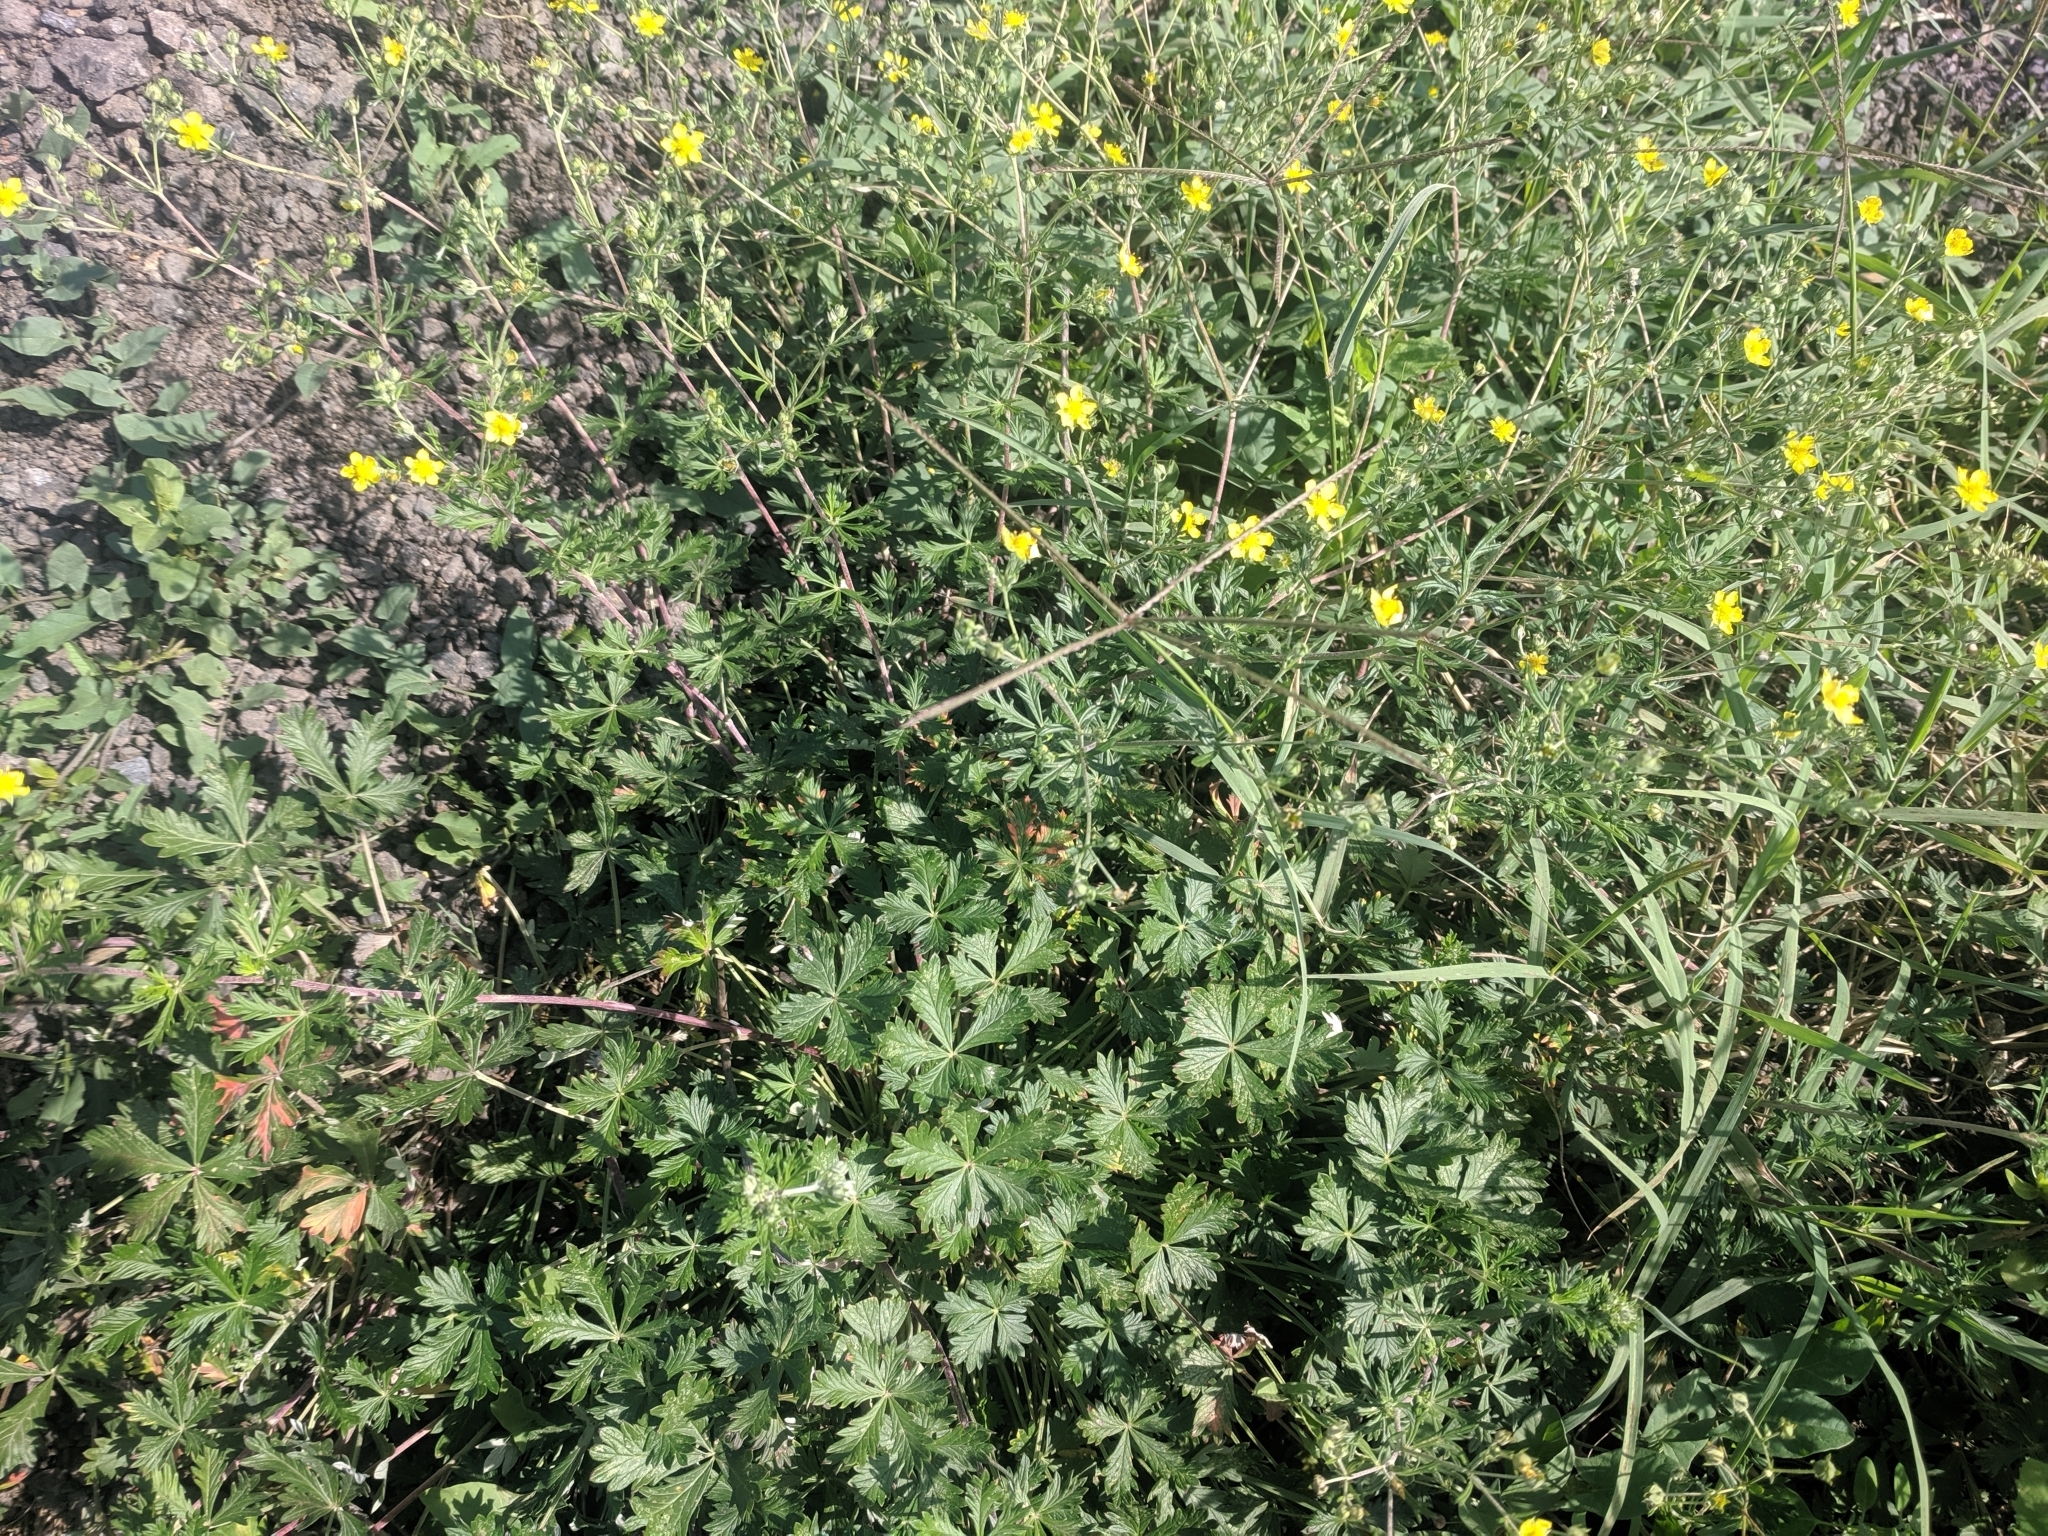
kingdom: Plantae
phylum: Tracheophyta
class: Magnoliopsida
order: Rosales
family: Rosaceae
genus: Potentilla
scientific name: Potentilla argentea
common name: Hoary cinquefoil
